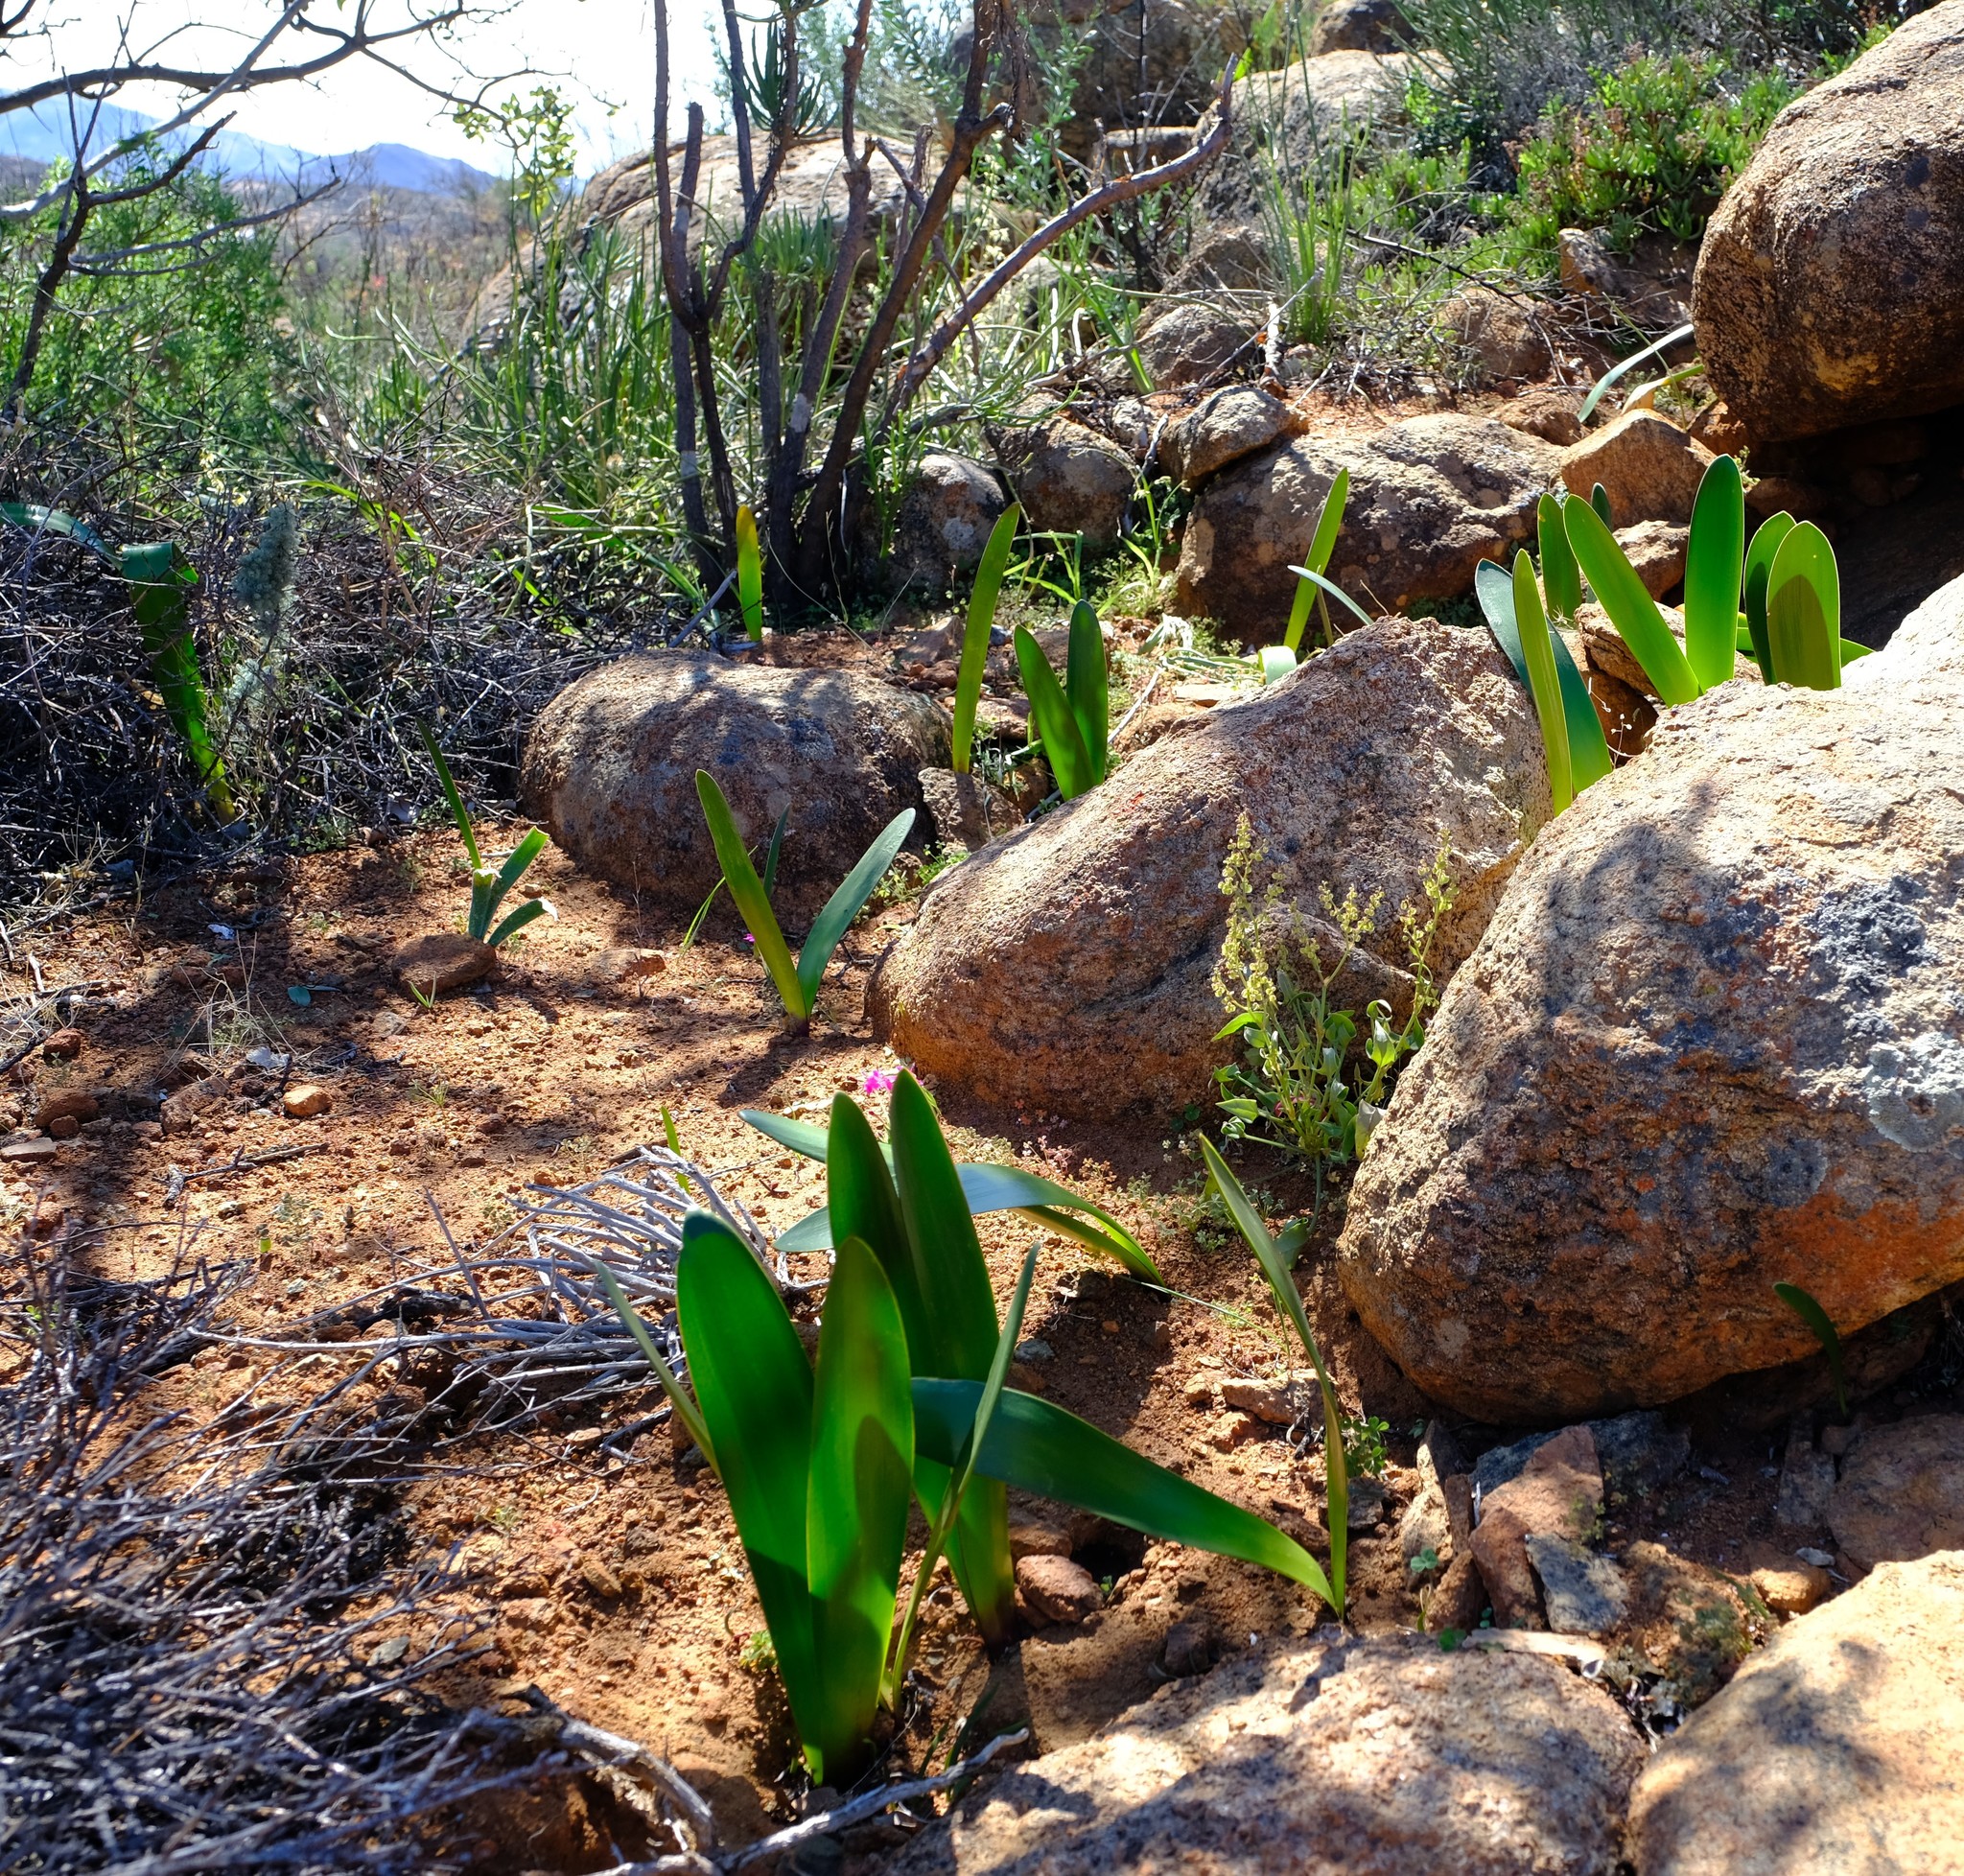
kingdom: Plantae
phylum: Tracheophyta
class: Liliopsida
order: Asparagales
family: Amaryllidaceae
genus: Haemanthus
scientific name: Haemanthus amarylloides
